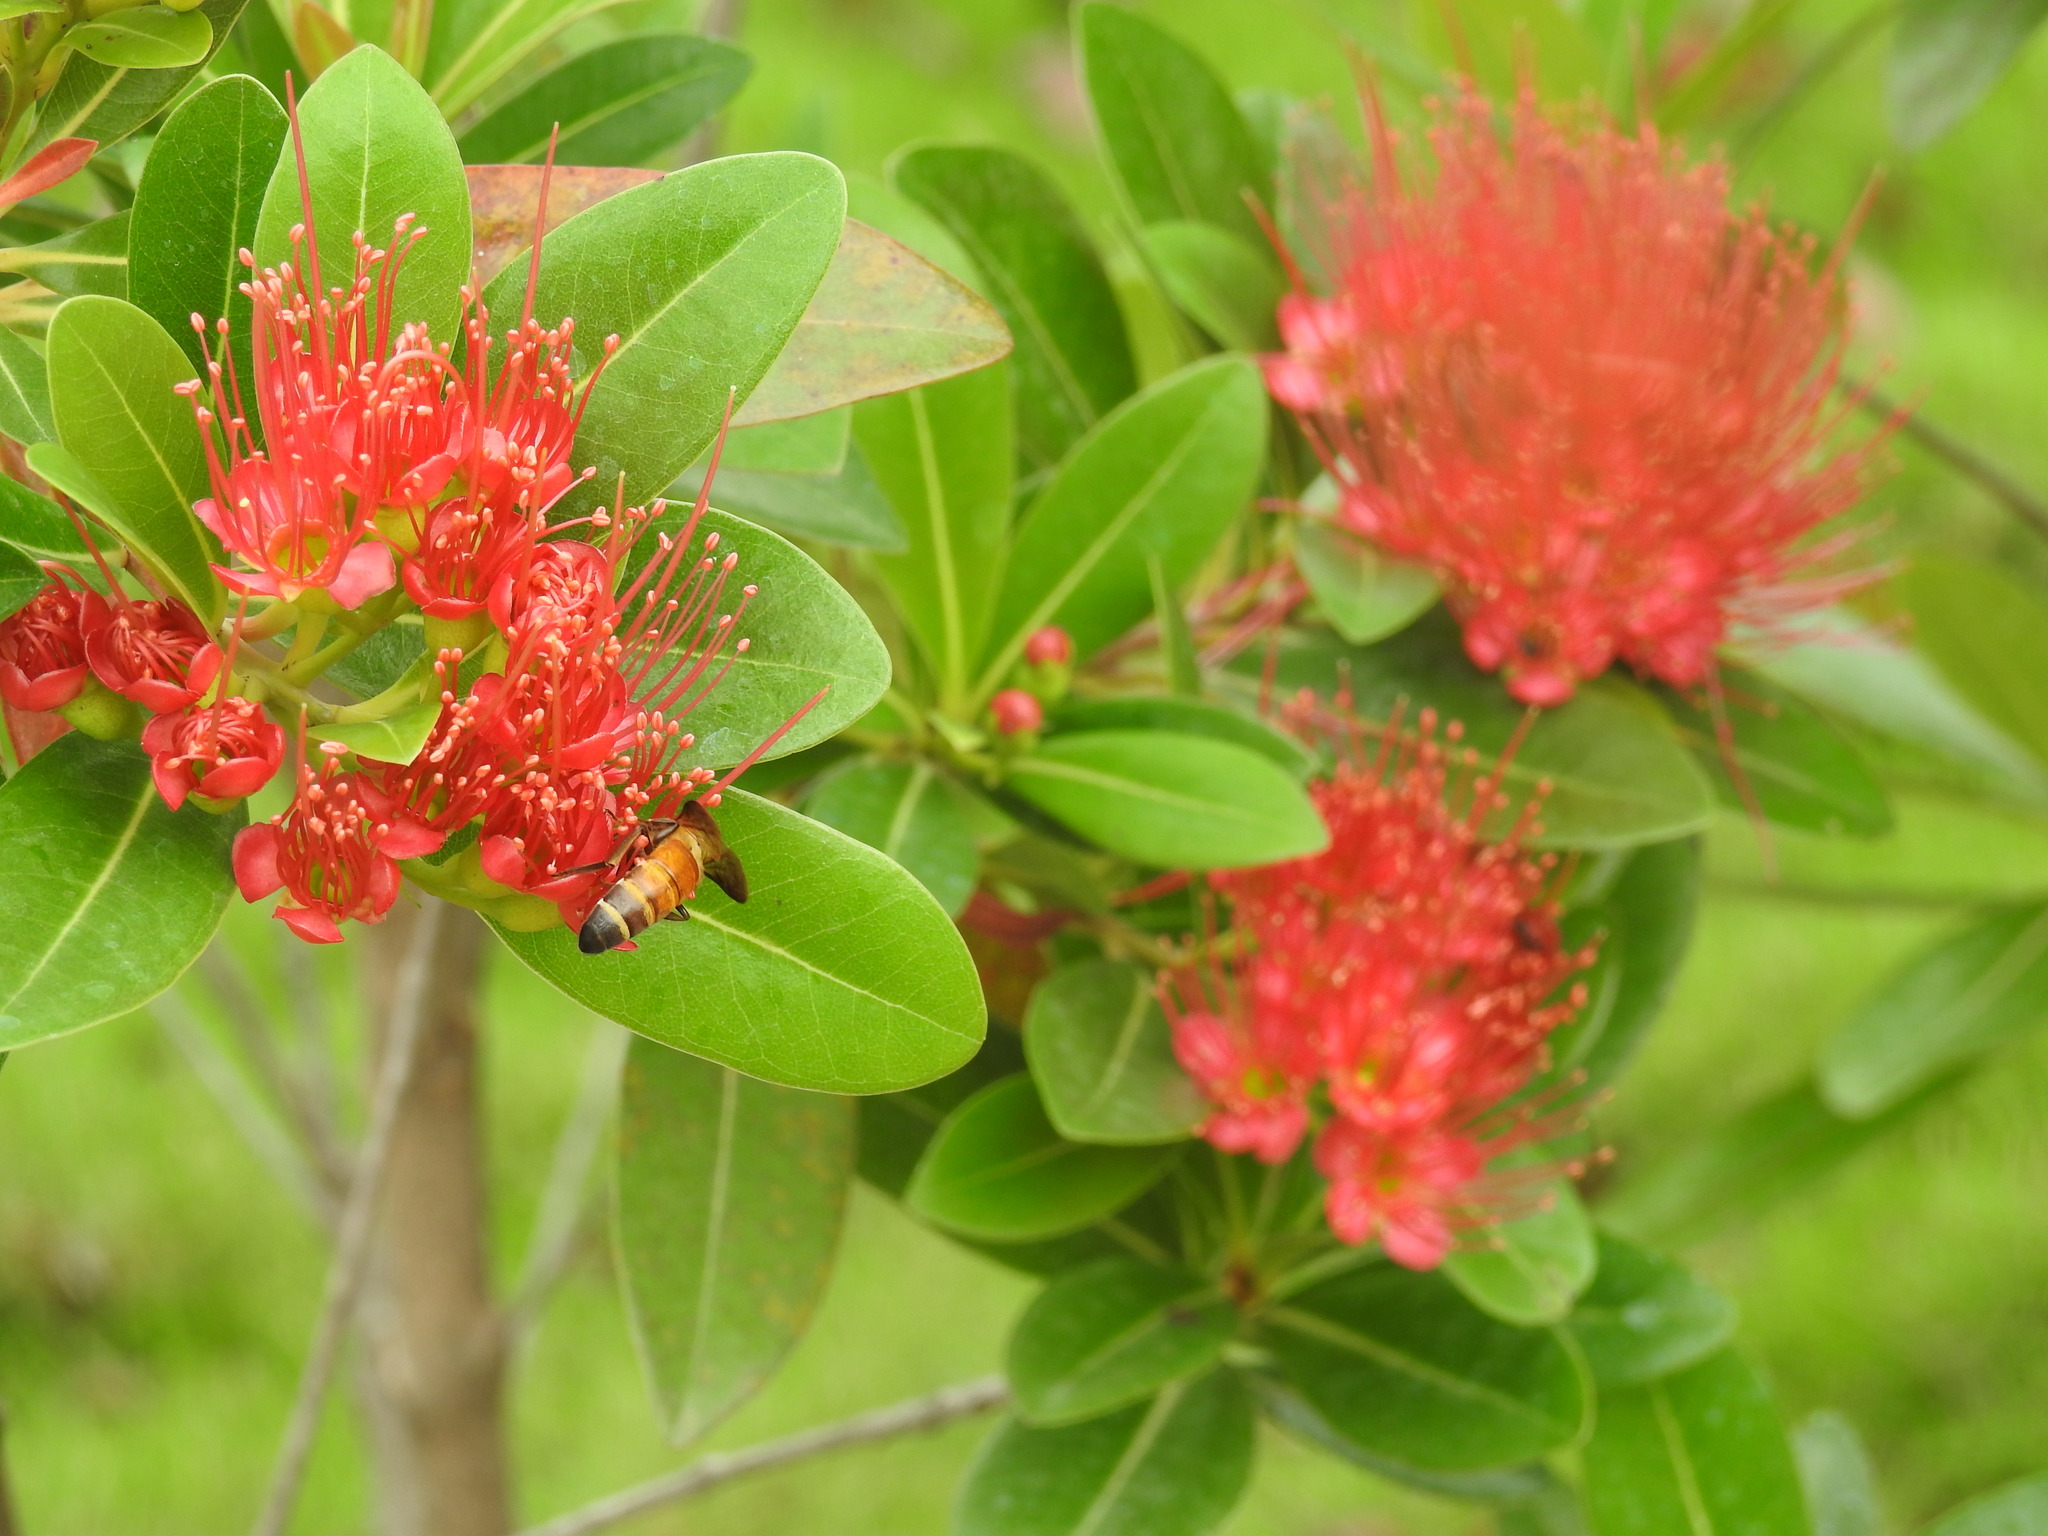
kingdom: Animalia
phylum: Arthropoda
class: Insecta
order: Hymenoptera
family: Apidae
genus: Apis
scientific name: Apis dorsata
